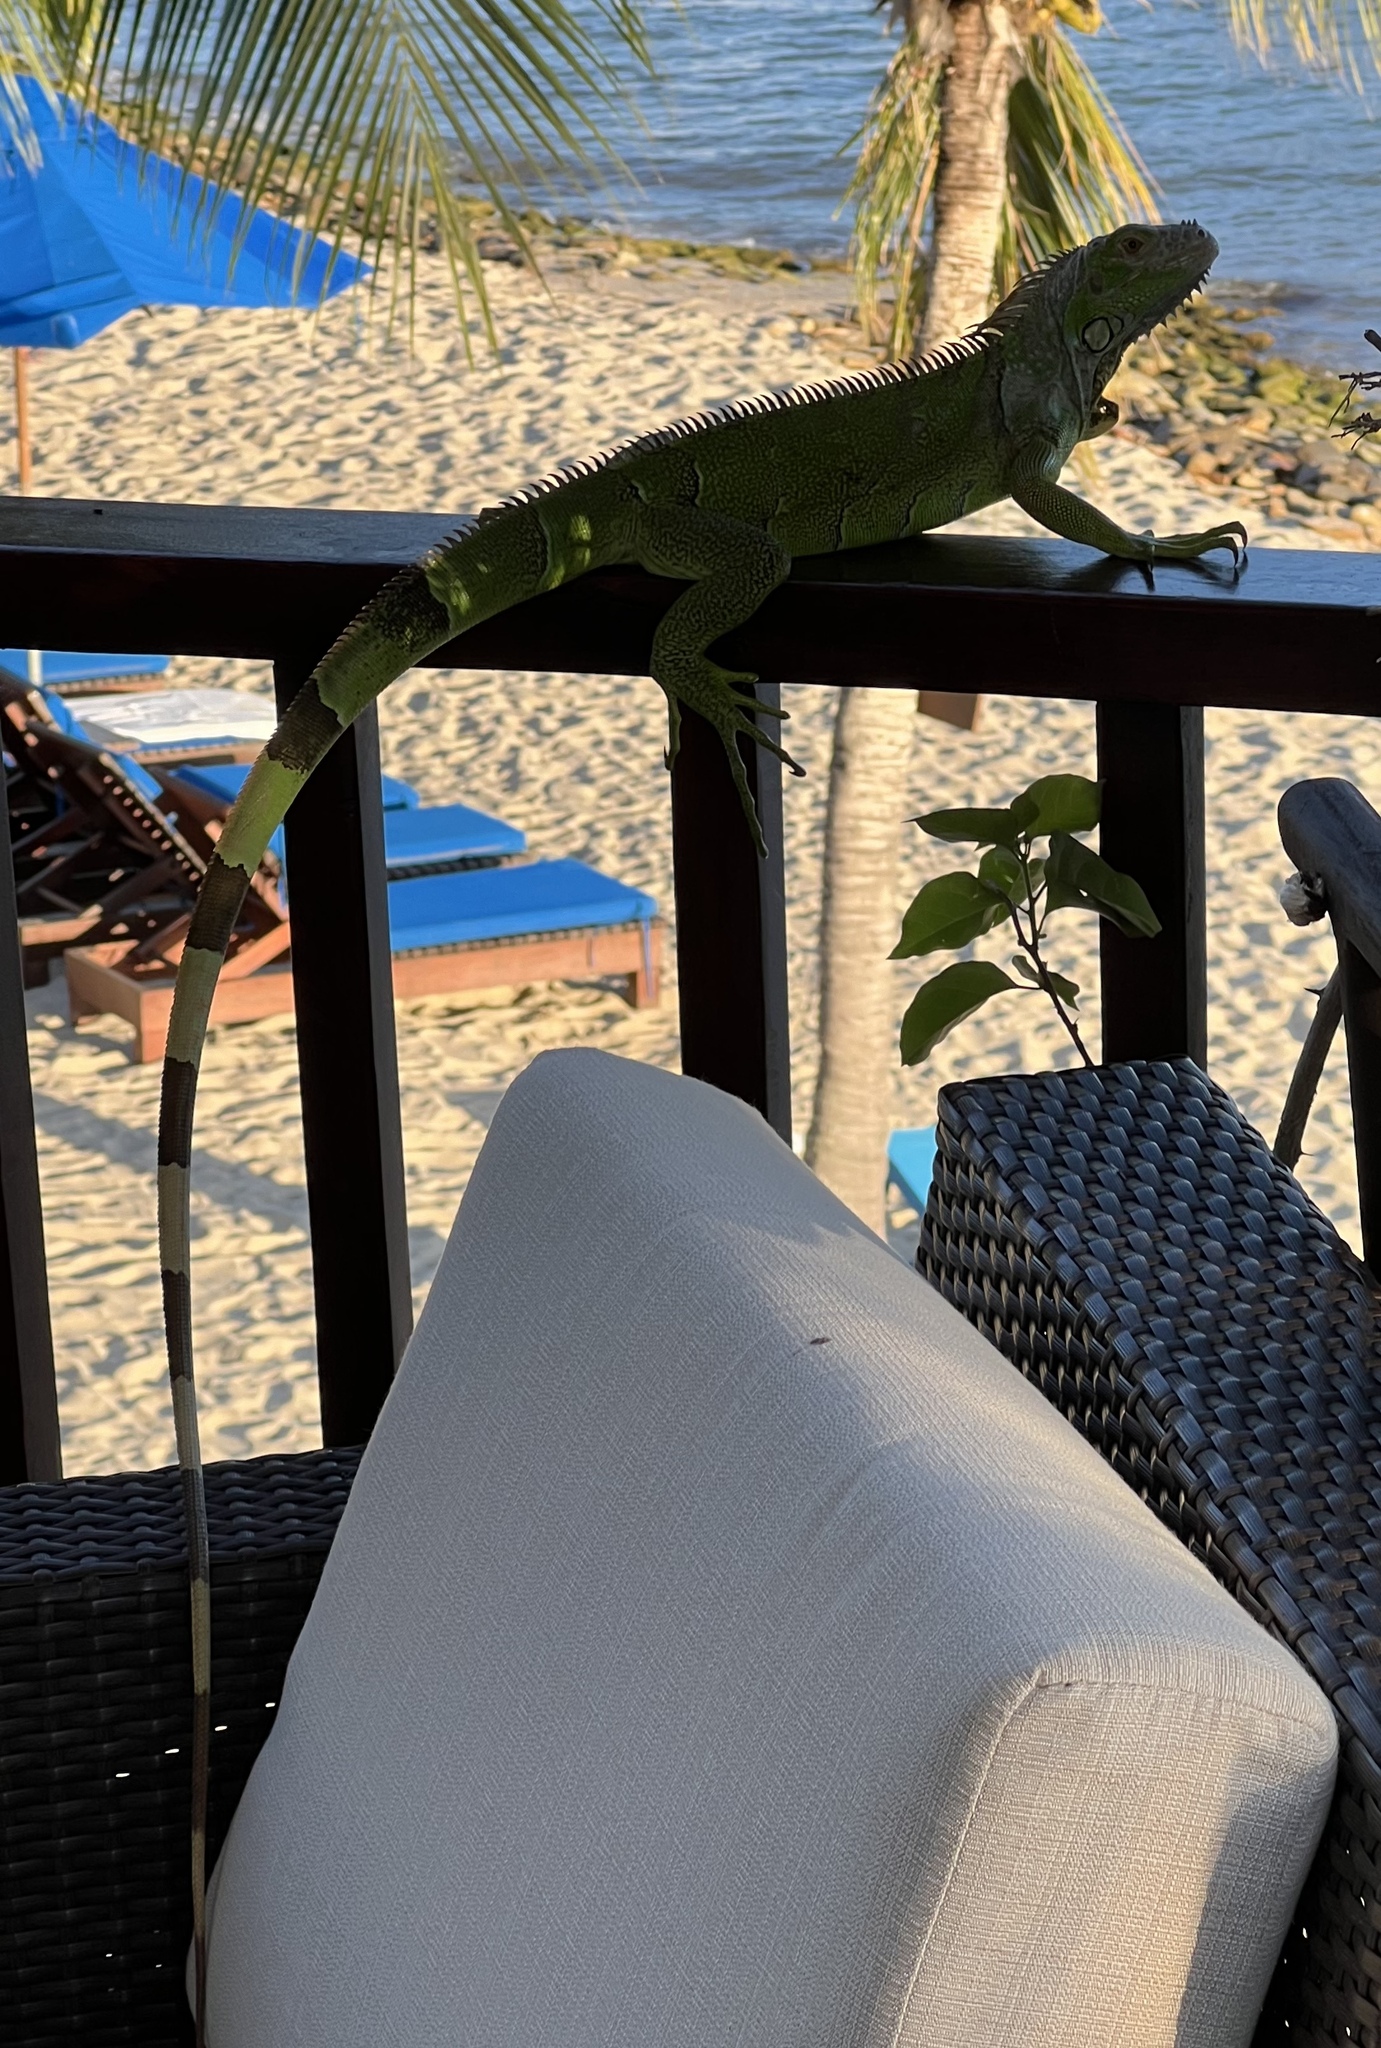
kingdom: Animalia
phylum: Chordata
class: Squamata
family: Iguanidae
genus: Iguana
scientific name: Iguana iguana
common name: Green iguana
